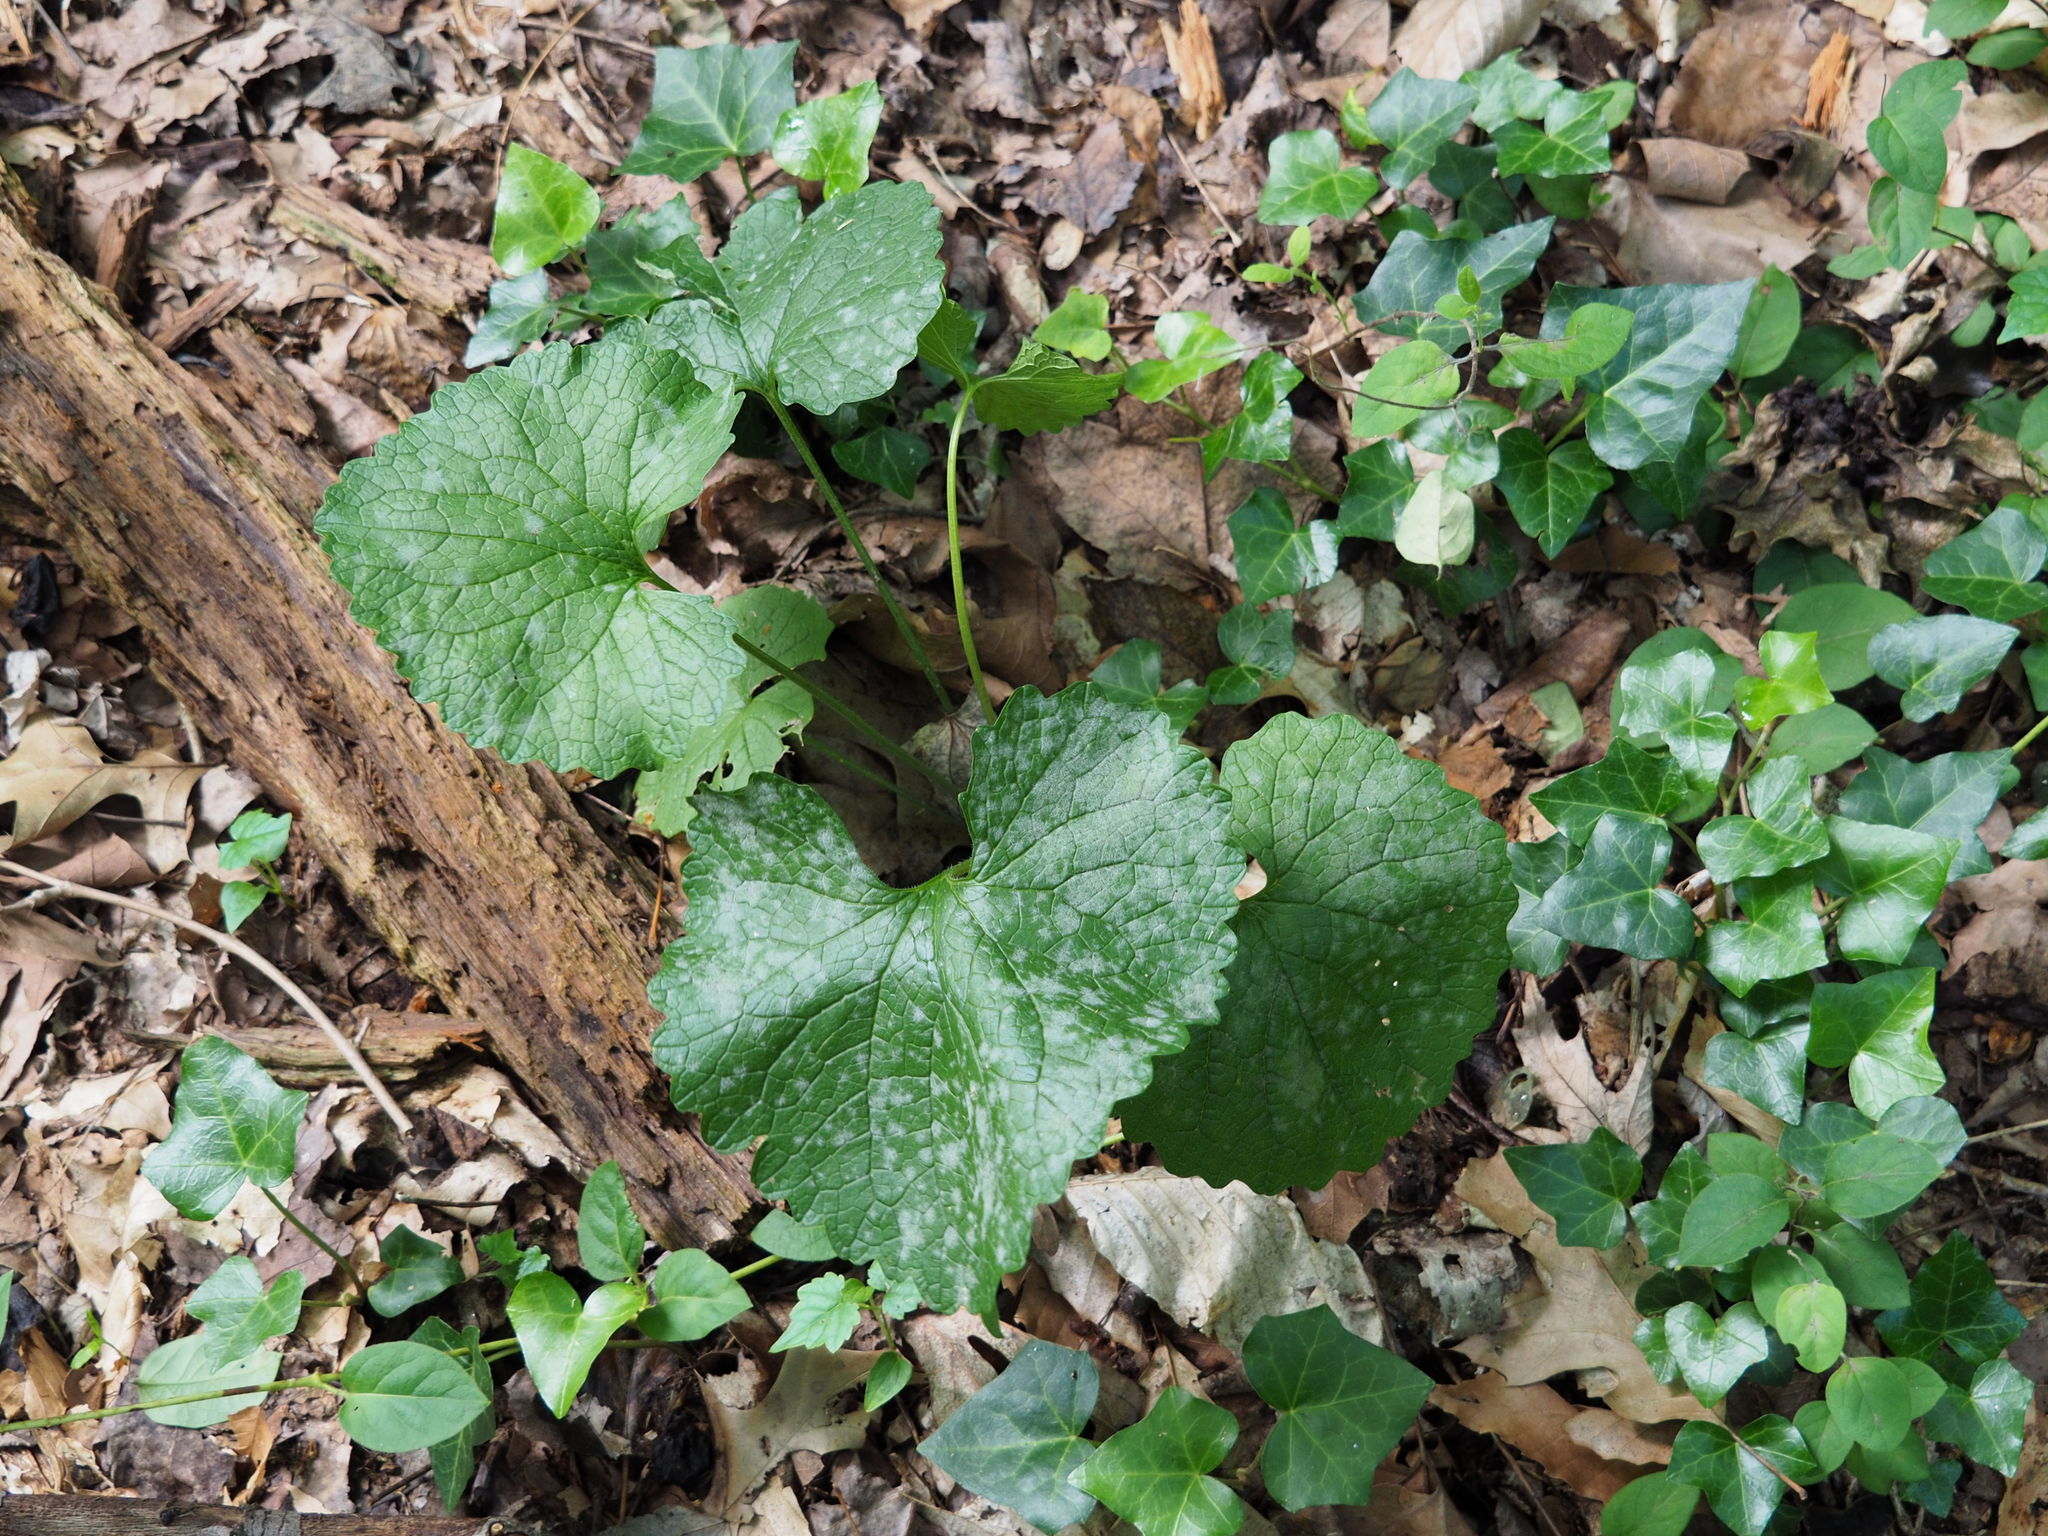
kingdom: Plantae
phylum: Tracheophyta
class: Magnoliopsida
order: Brassicales
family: Brassicaceae
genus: Alliaria
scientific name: Alliaria petiolata
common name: Garlic mustard
